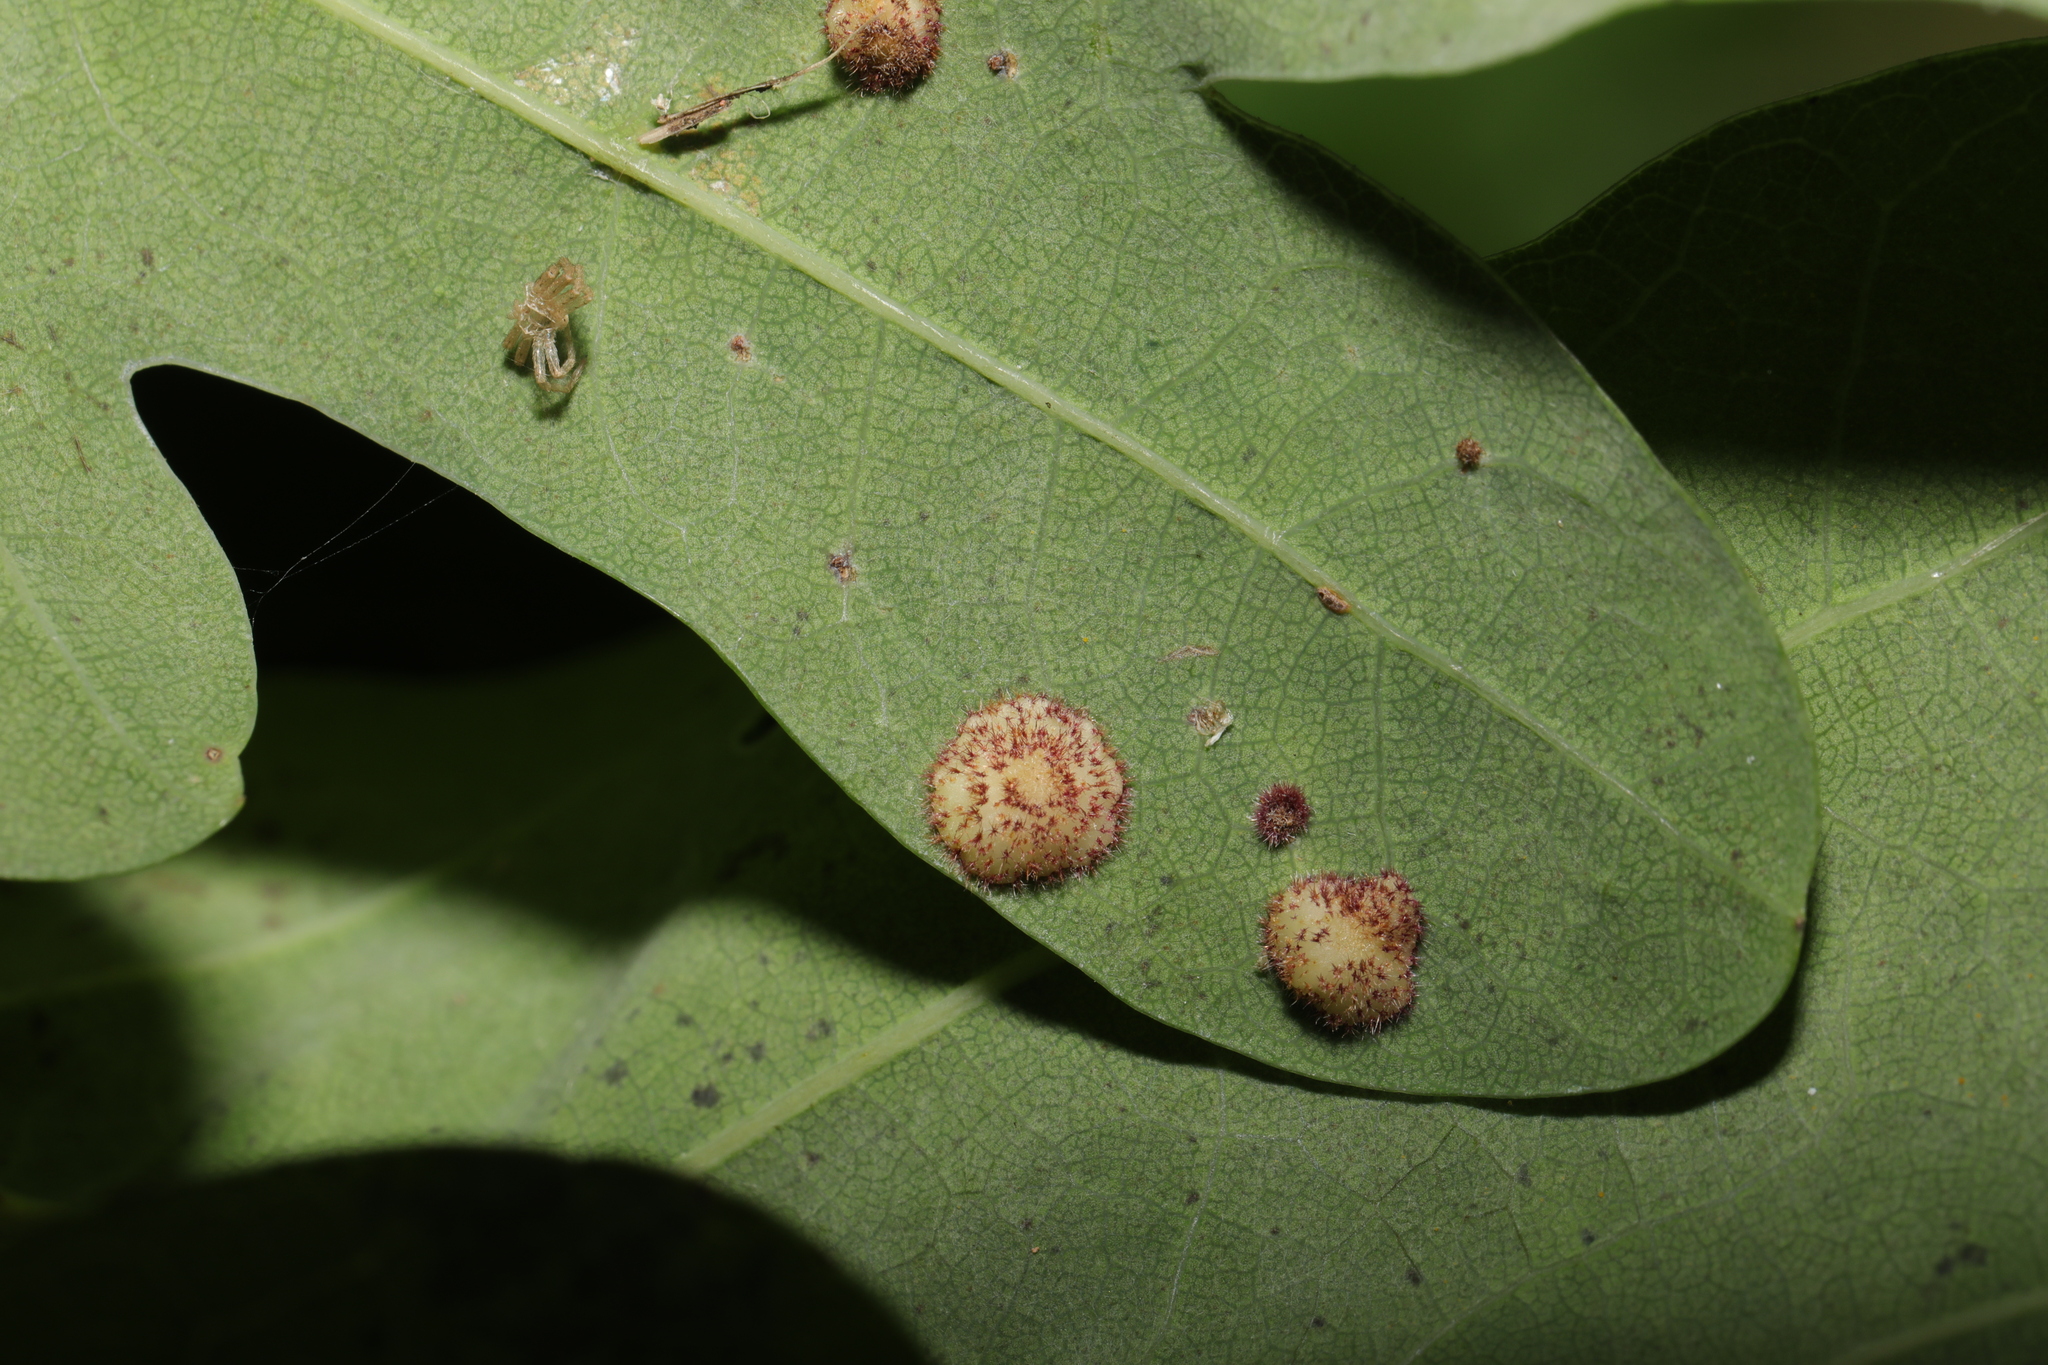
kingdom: Animalia
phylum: Arthropoda
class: Insecta
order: Hymenoptera
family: Cynipidae
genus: Neuroterus
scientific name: Neuroterus quercusbaccarum
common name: Common spangle gall
